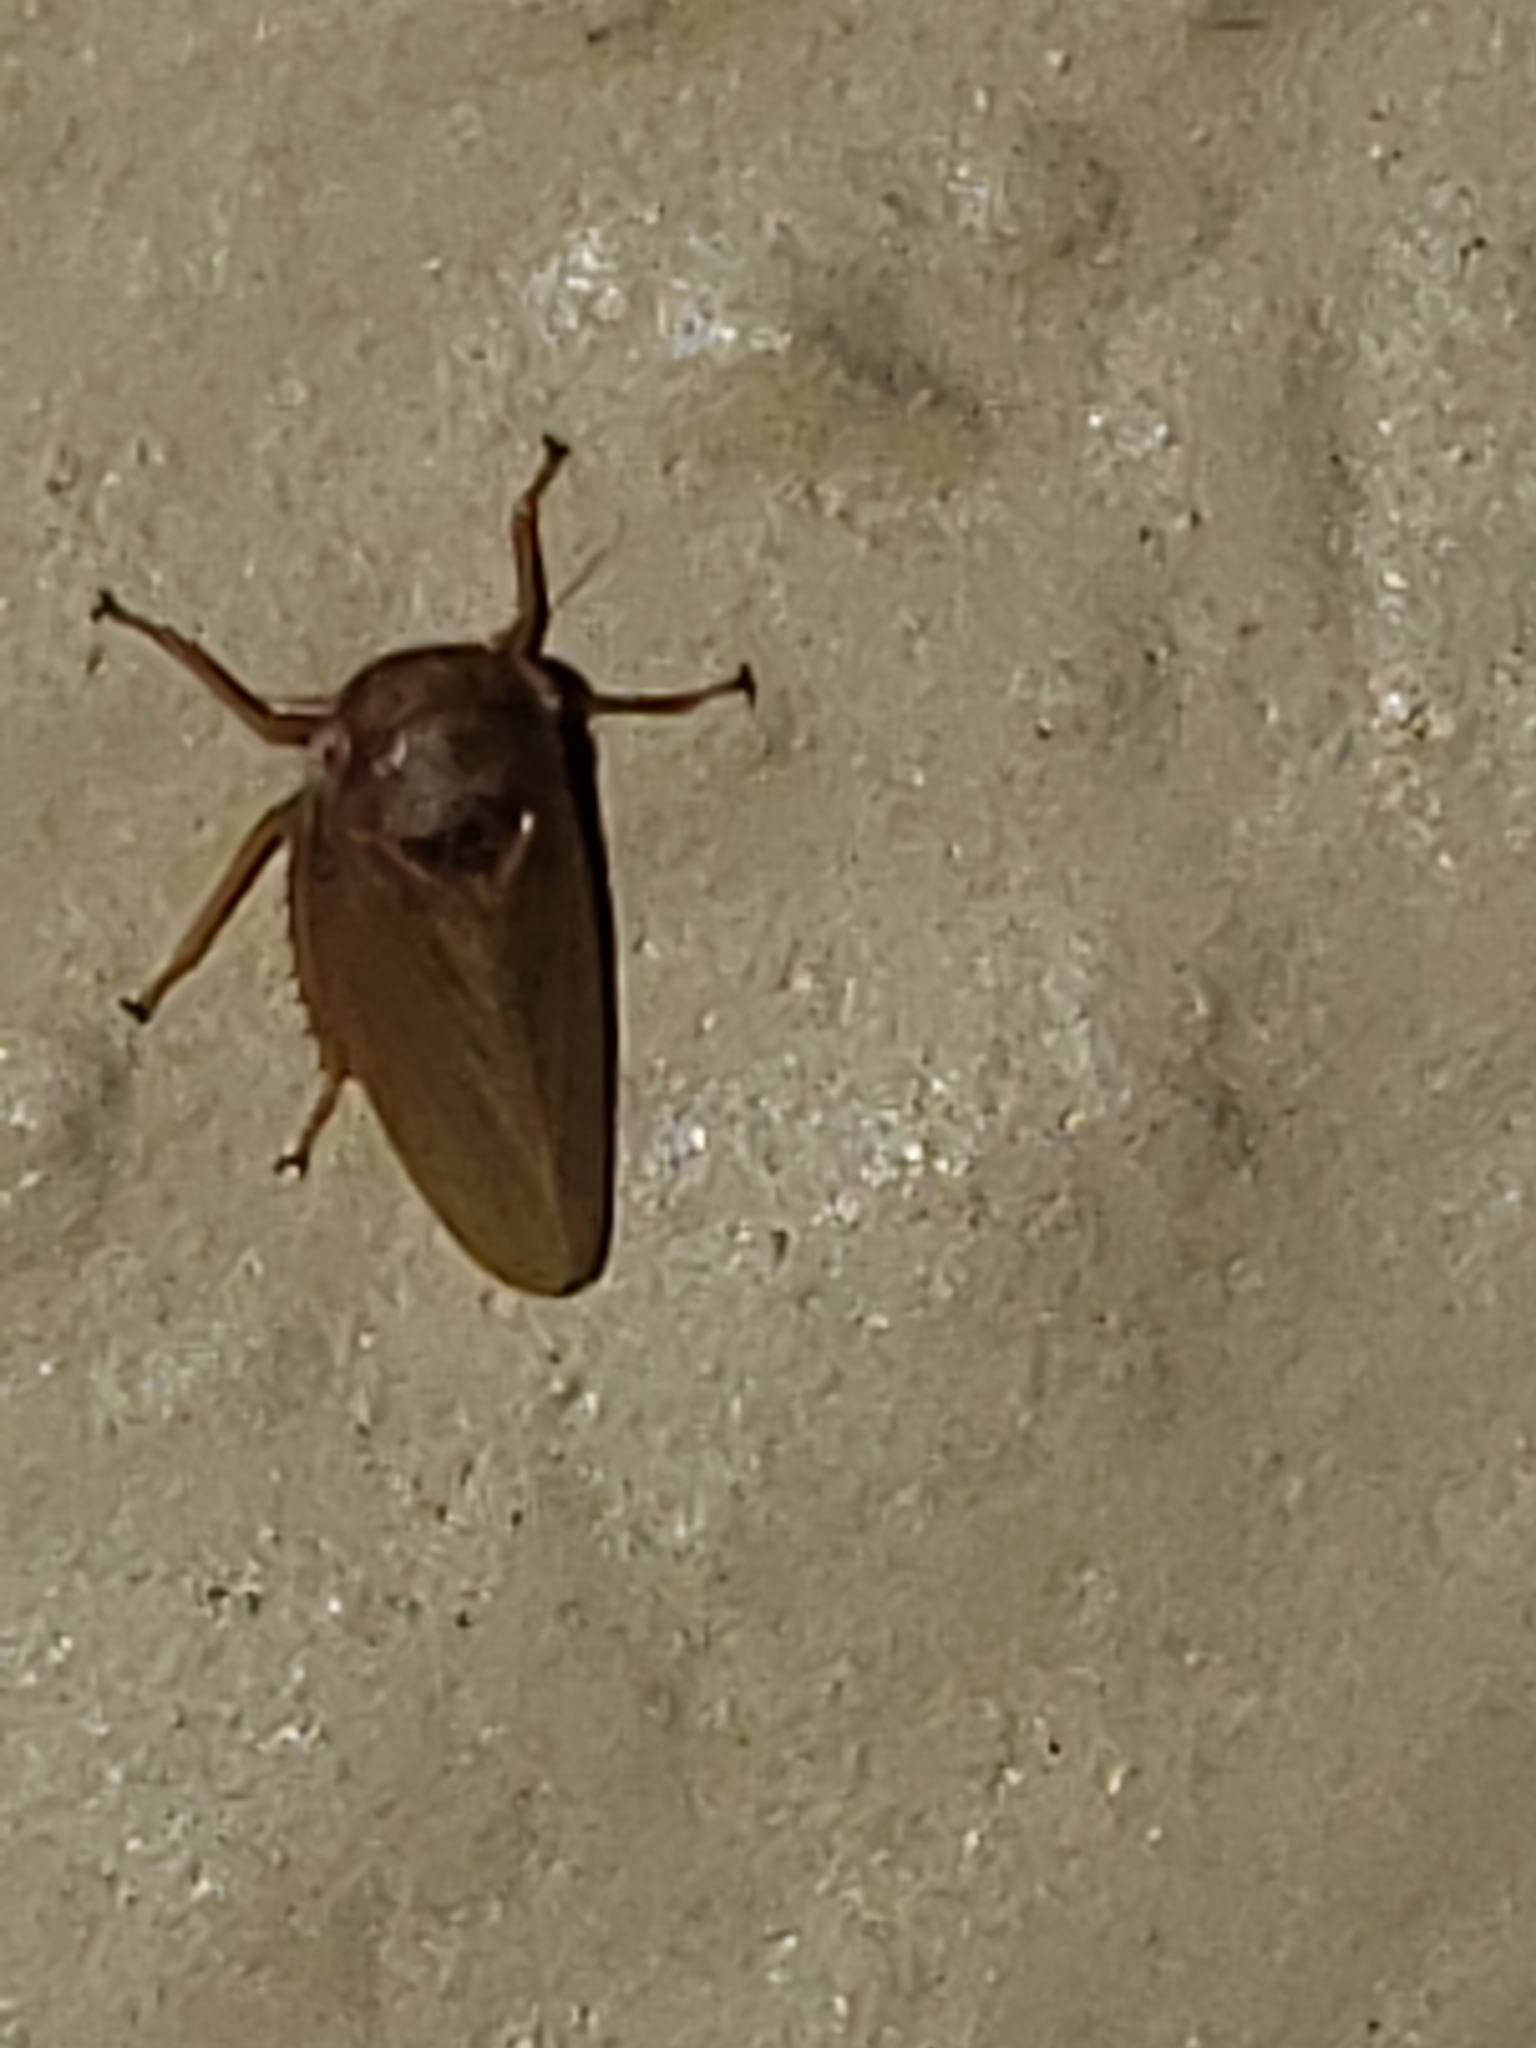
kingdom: Animalia
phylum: Arthropoda
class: Insecta
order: Hemiptera
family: Cicadellidae
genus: Agallia
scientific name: Agallia deleta
